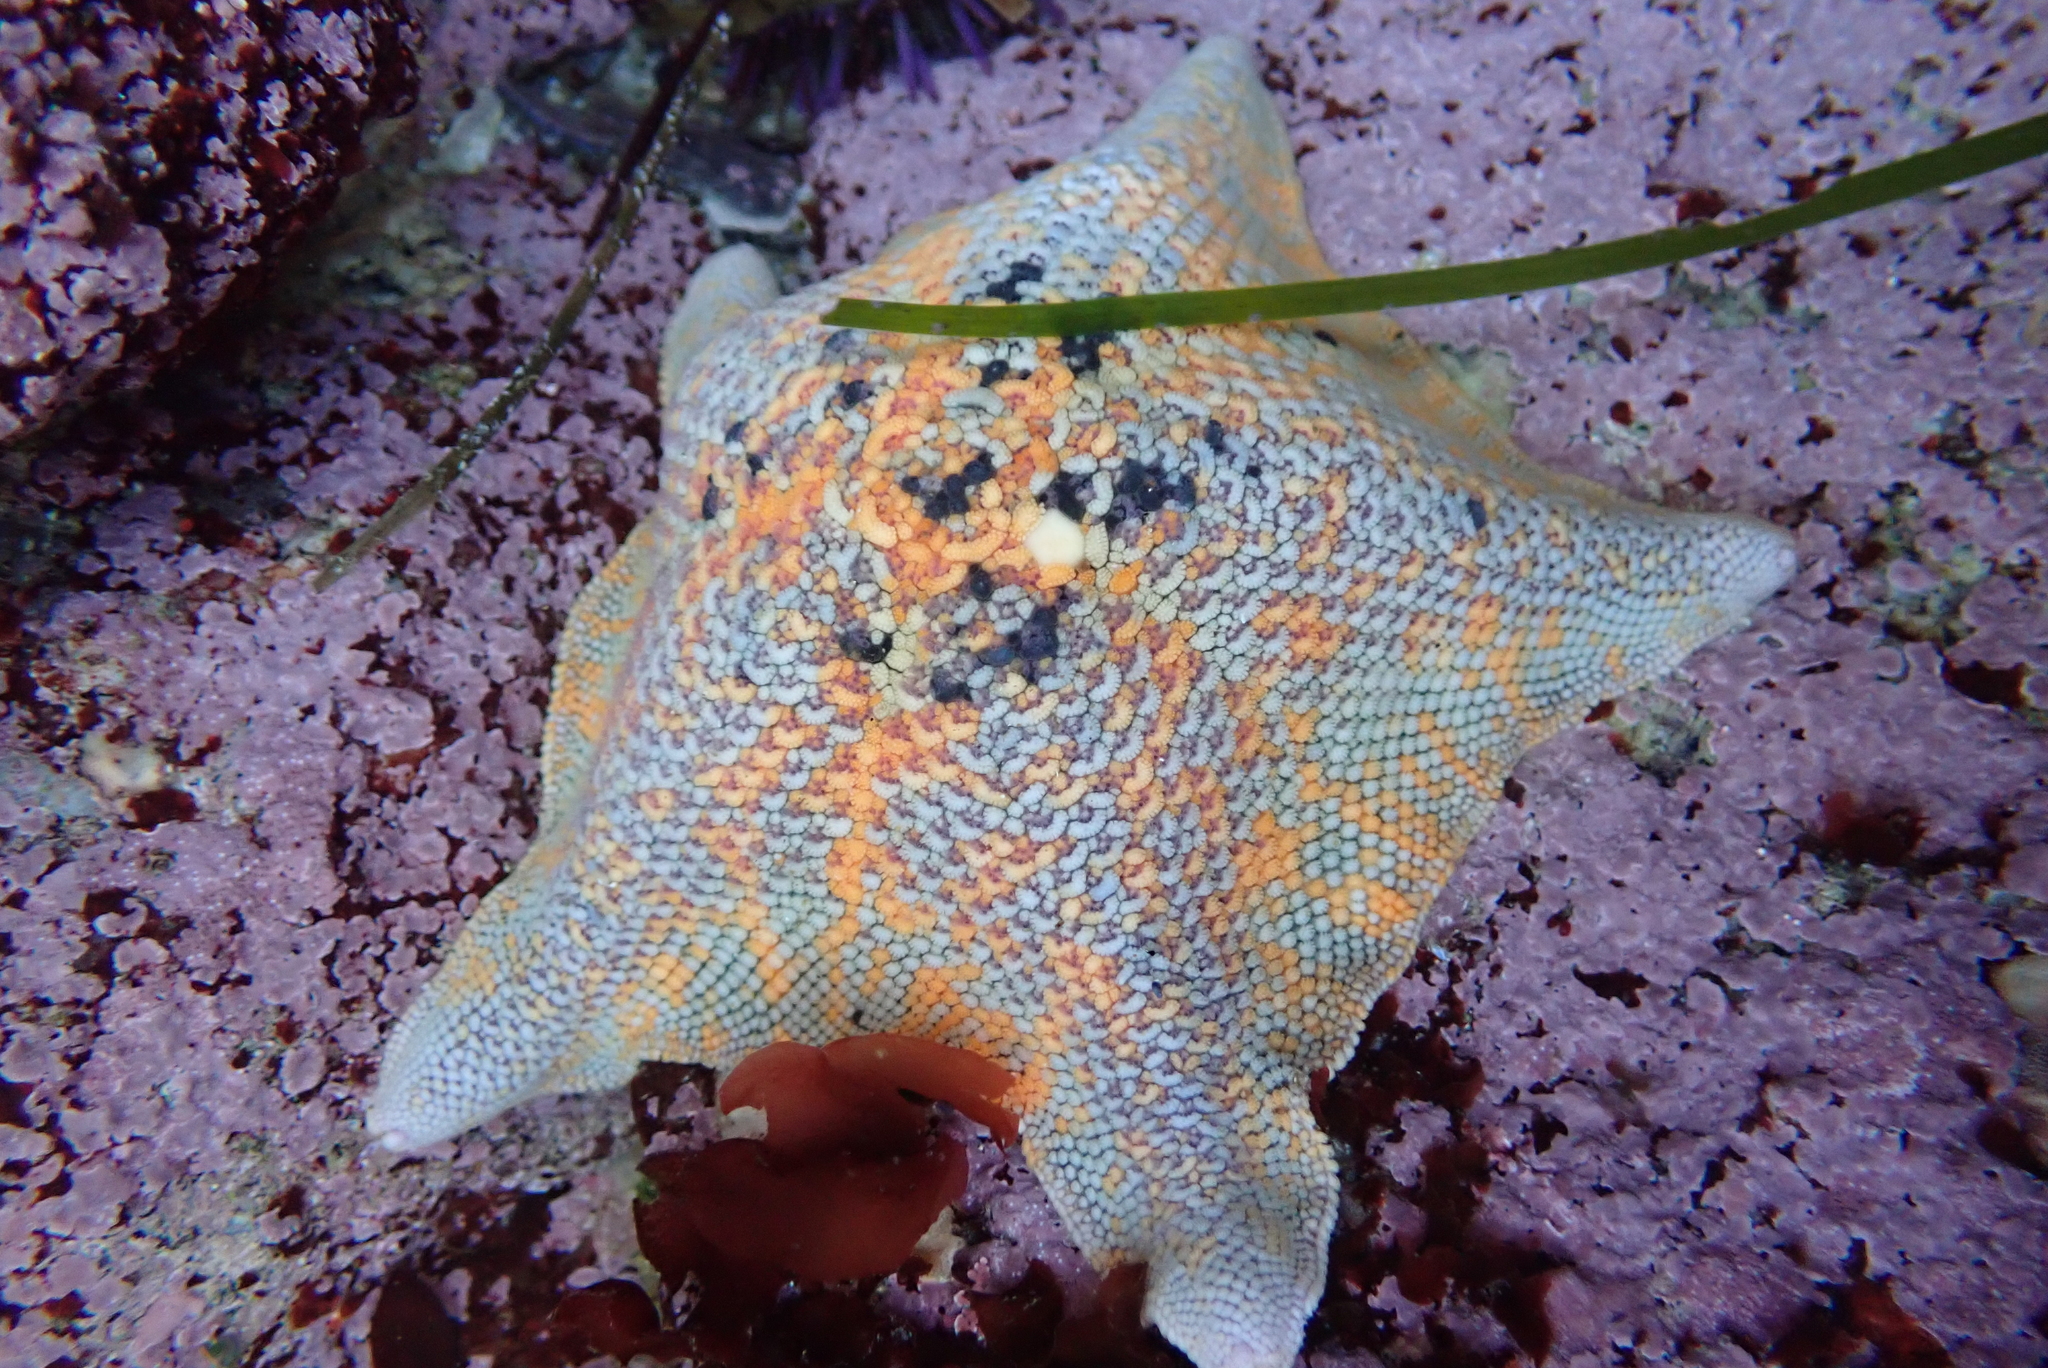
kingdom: Animalia
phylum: Echinodermata
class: Asteroidea
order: Valvatida
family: Asterinidae
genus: Patiria
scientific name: Patiria miniata
